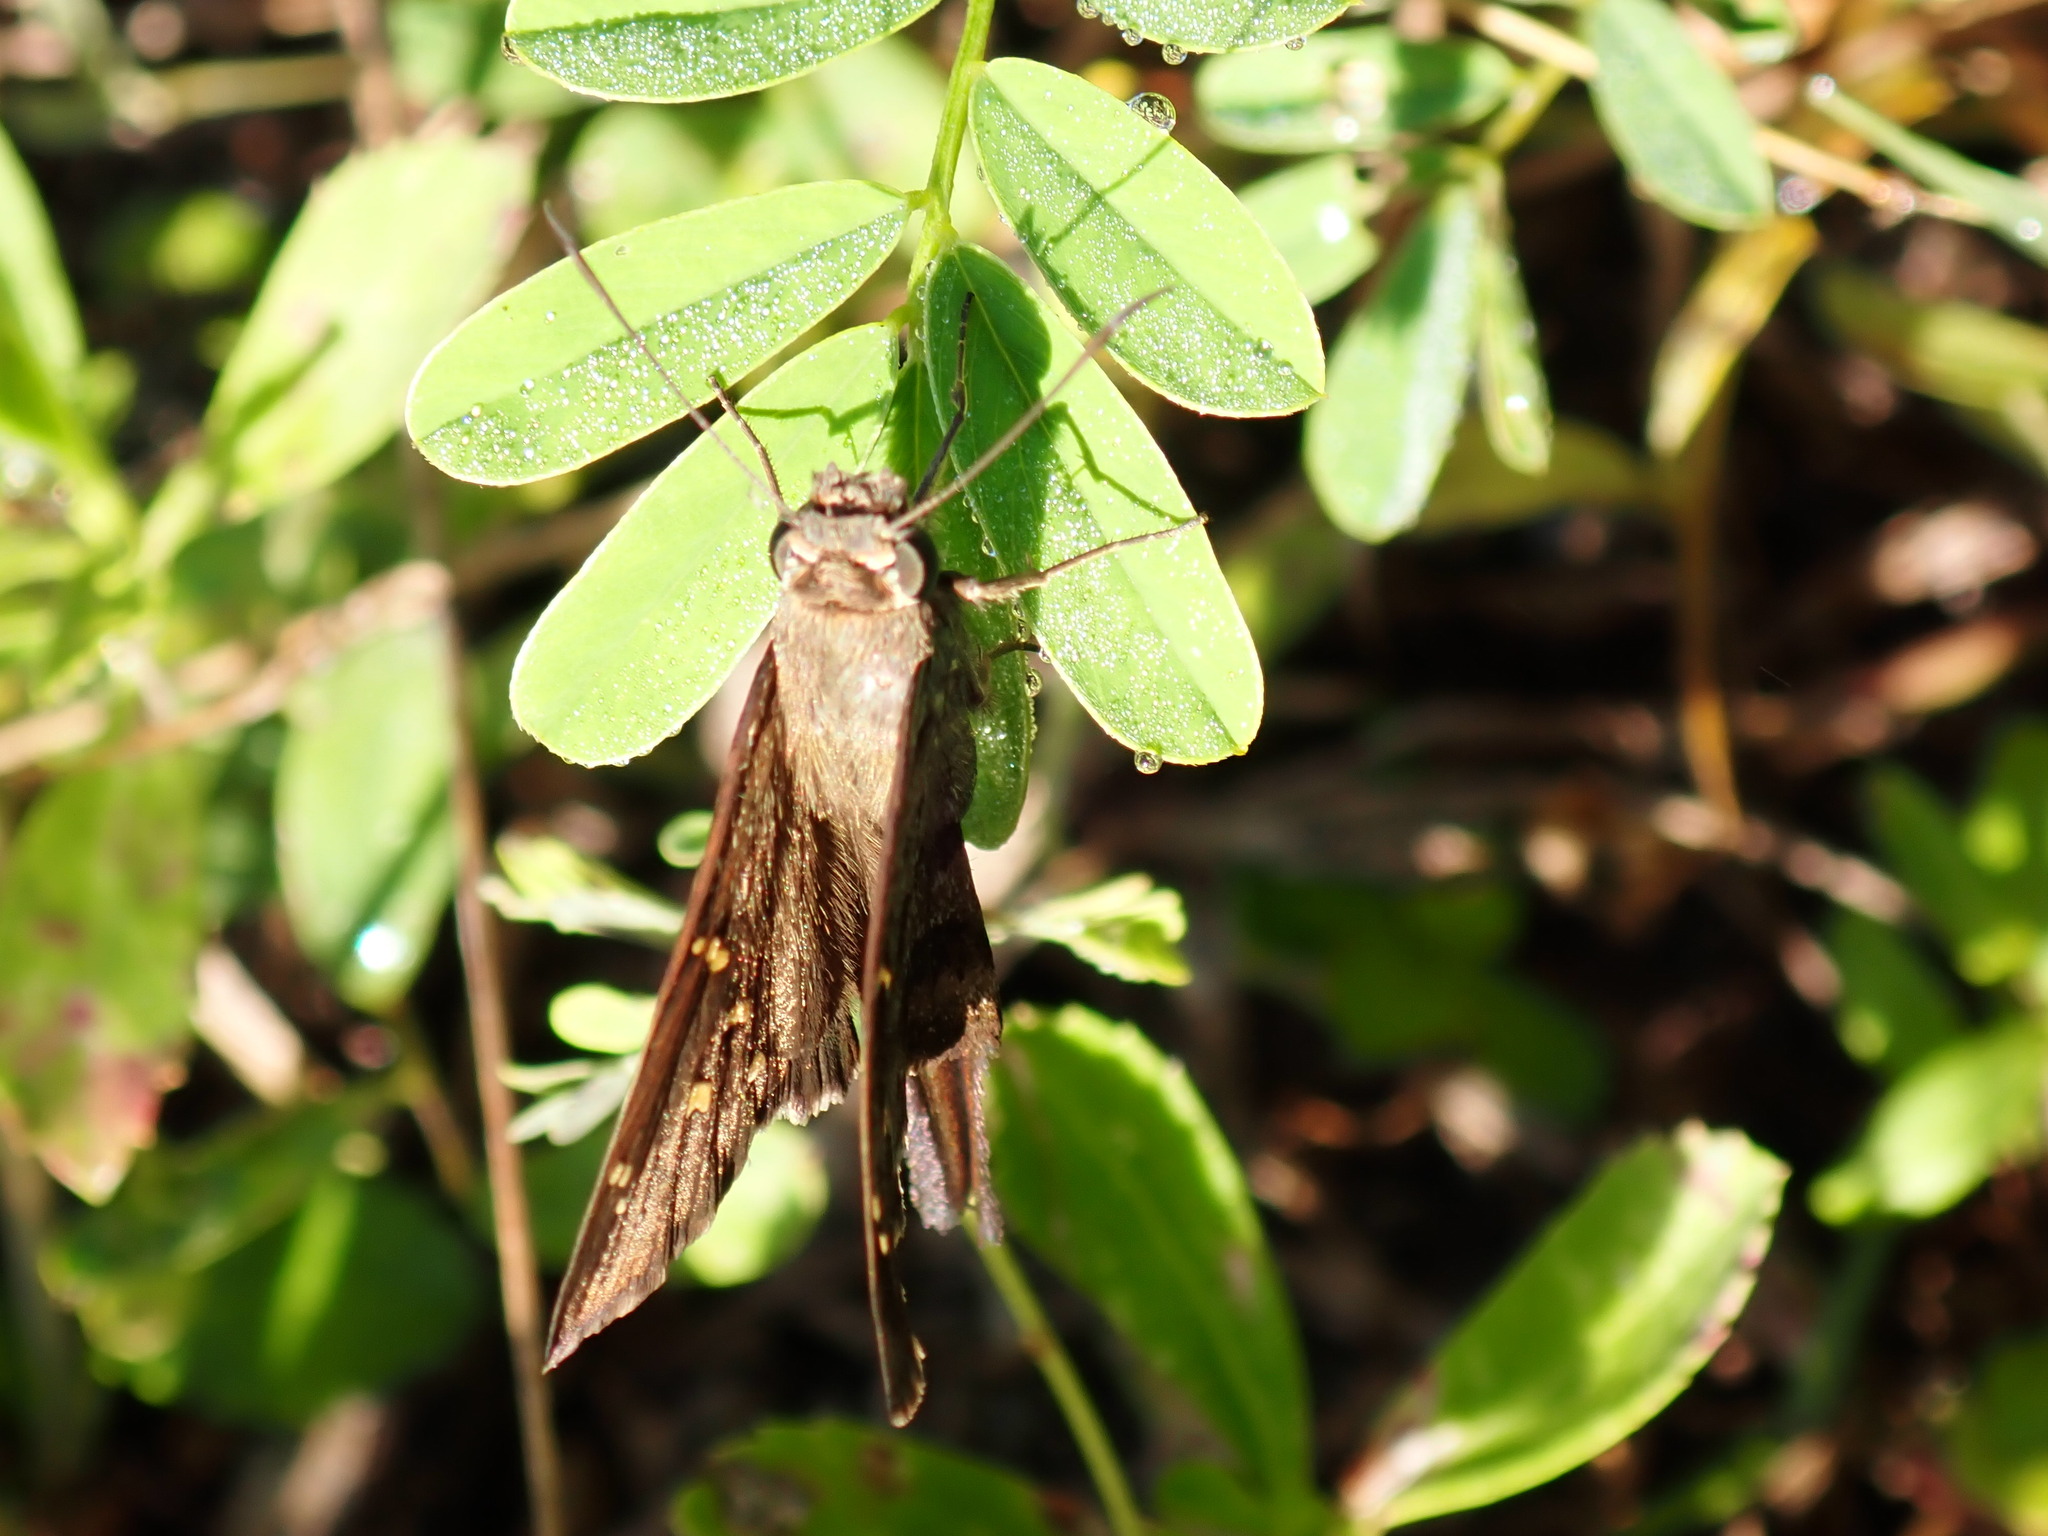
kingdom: Animalia
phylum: Arthropoda
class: Insecta
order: Lepidoptera
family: Hesperiidae
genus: Thorybes
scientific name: Thorybes
